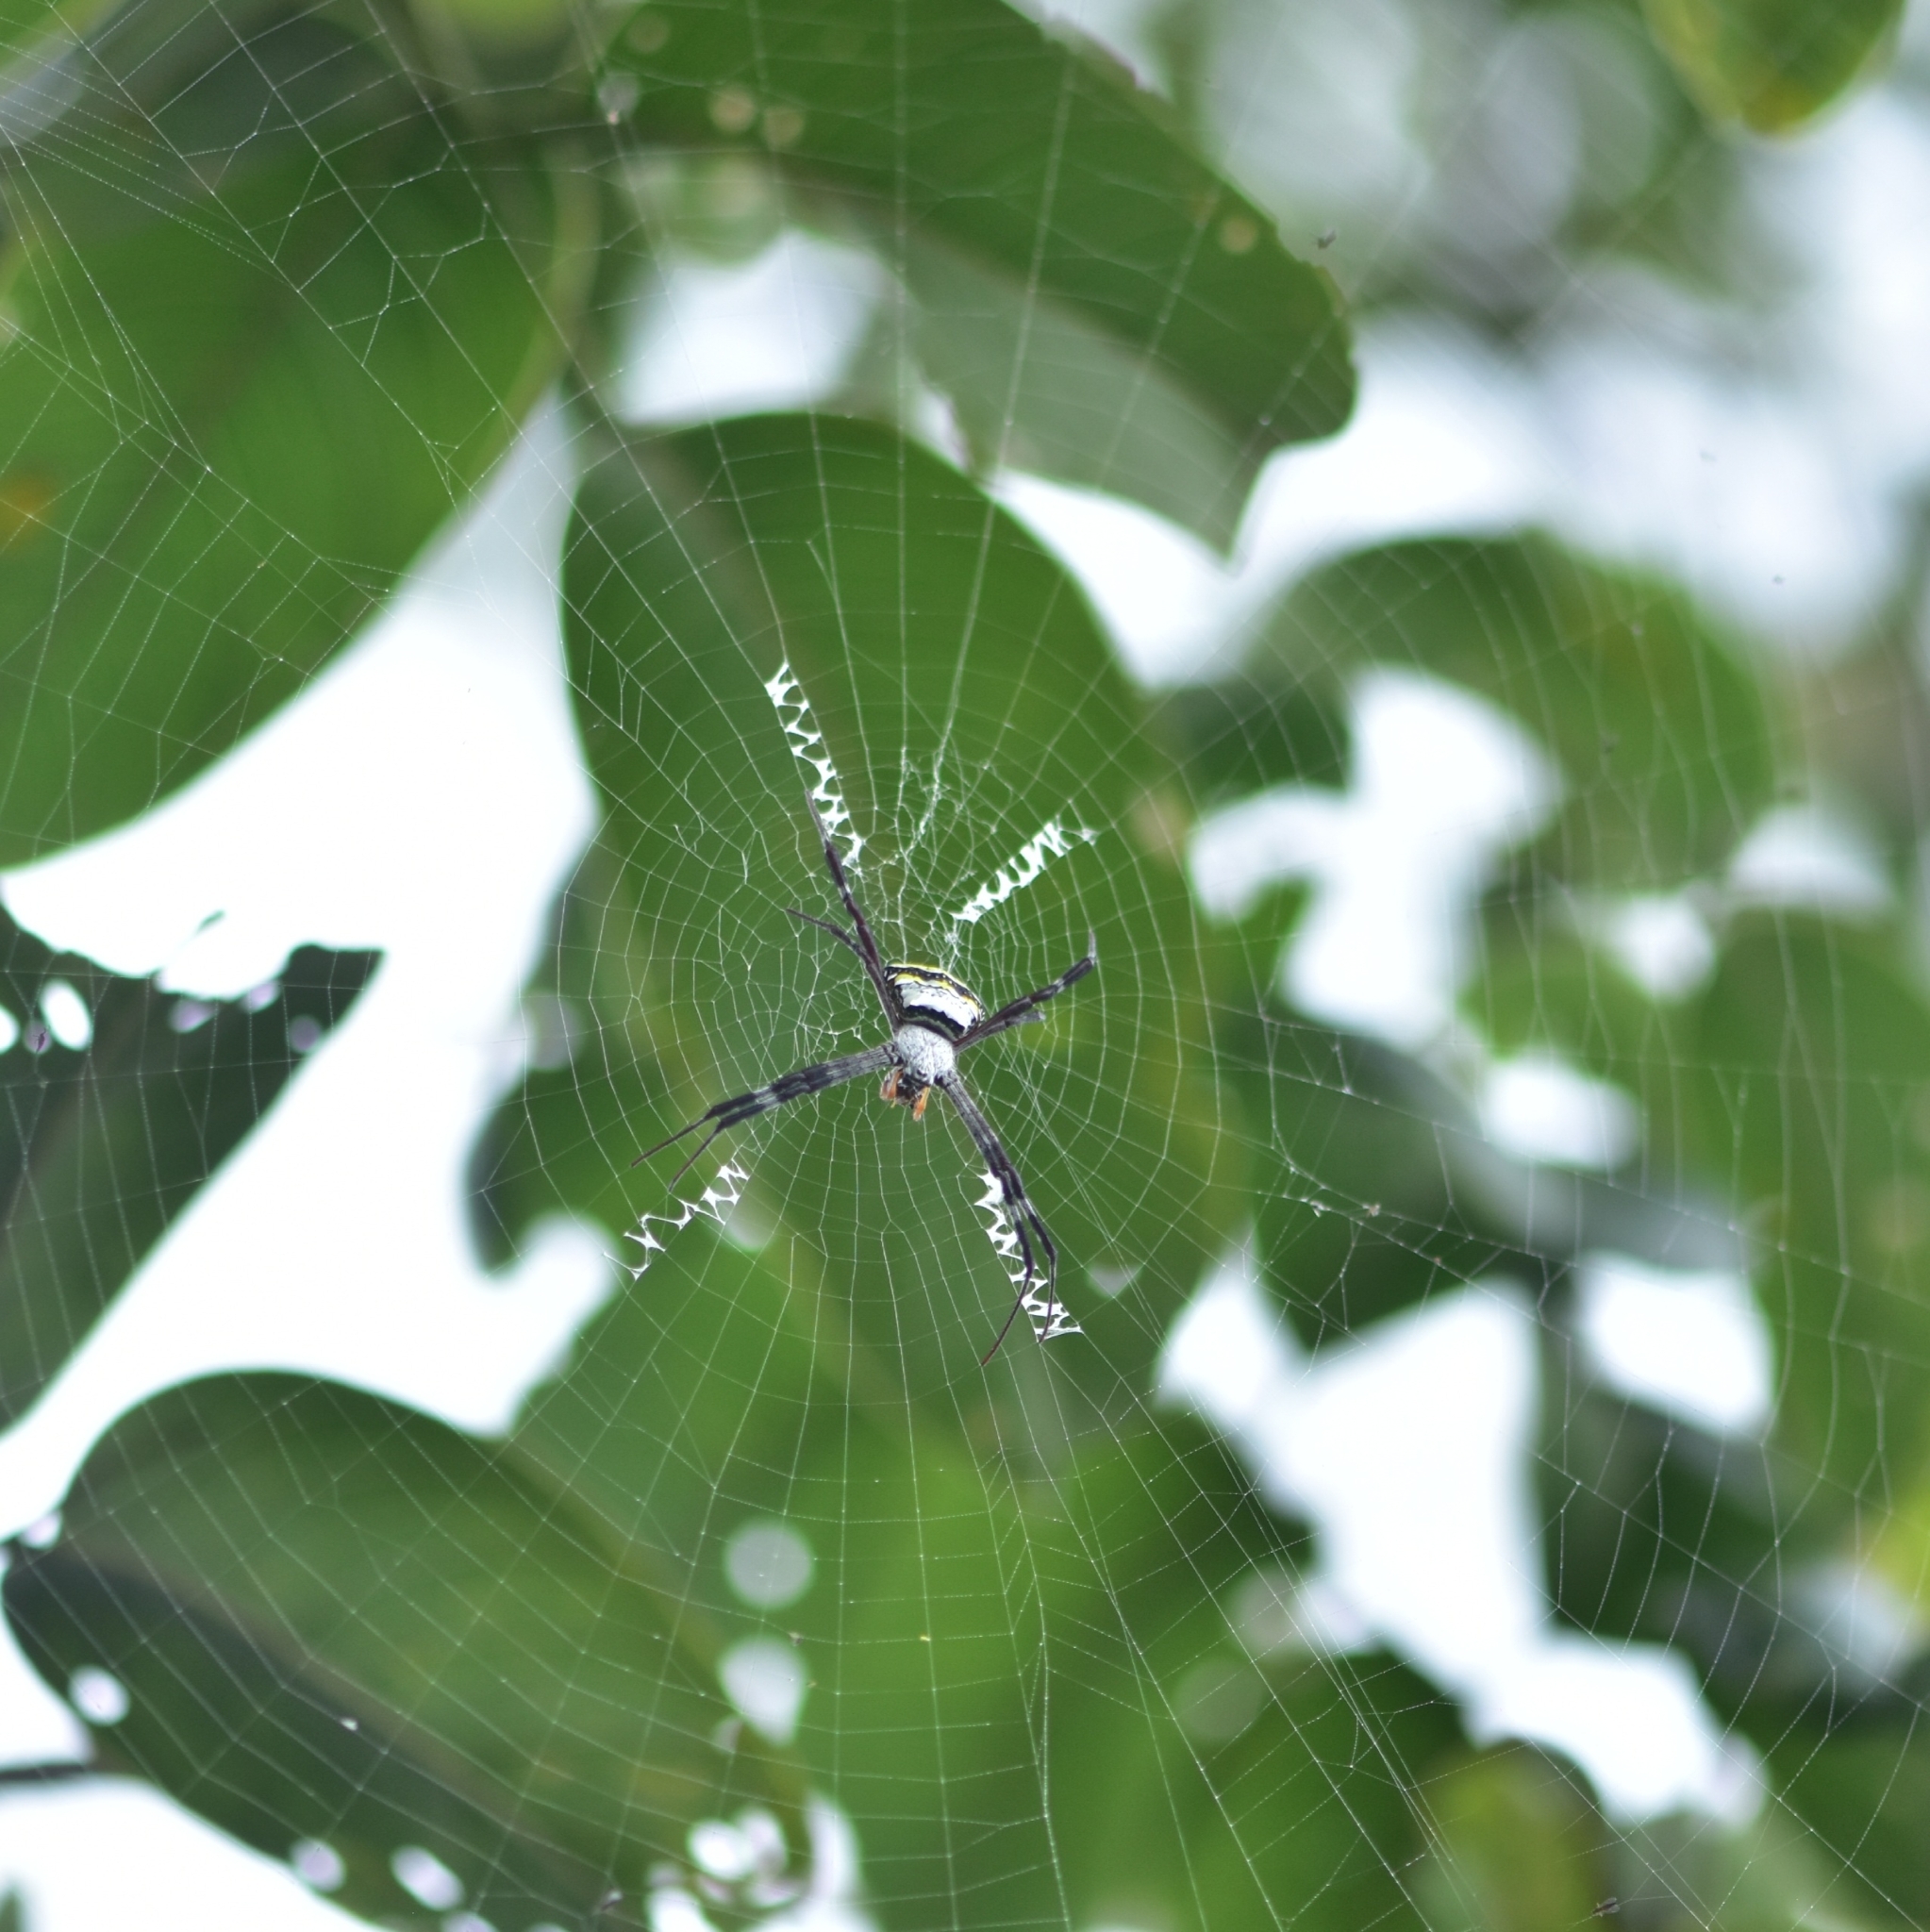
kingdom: Animalia
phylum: Arthropoda
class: Arachnida
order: Araneae
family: Araneidae
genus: Argiope
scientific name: Argiope anasuja
